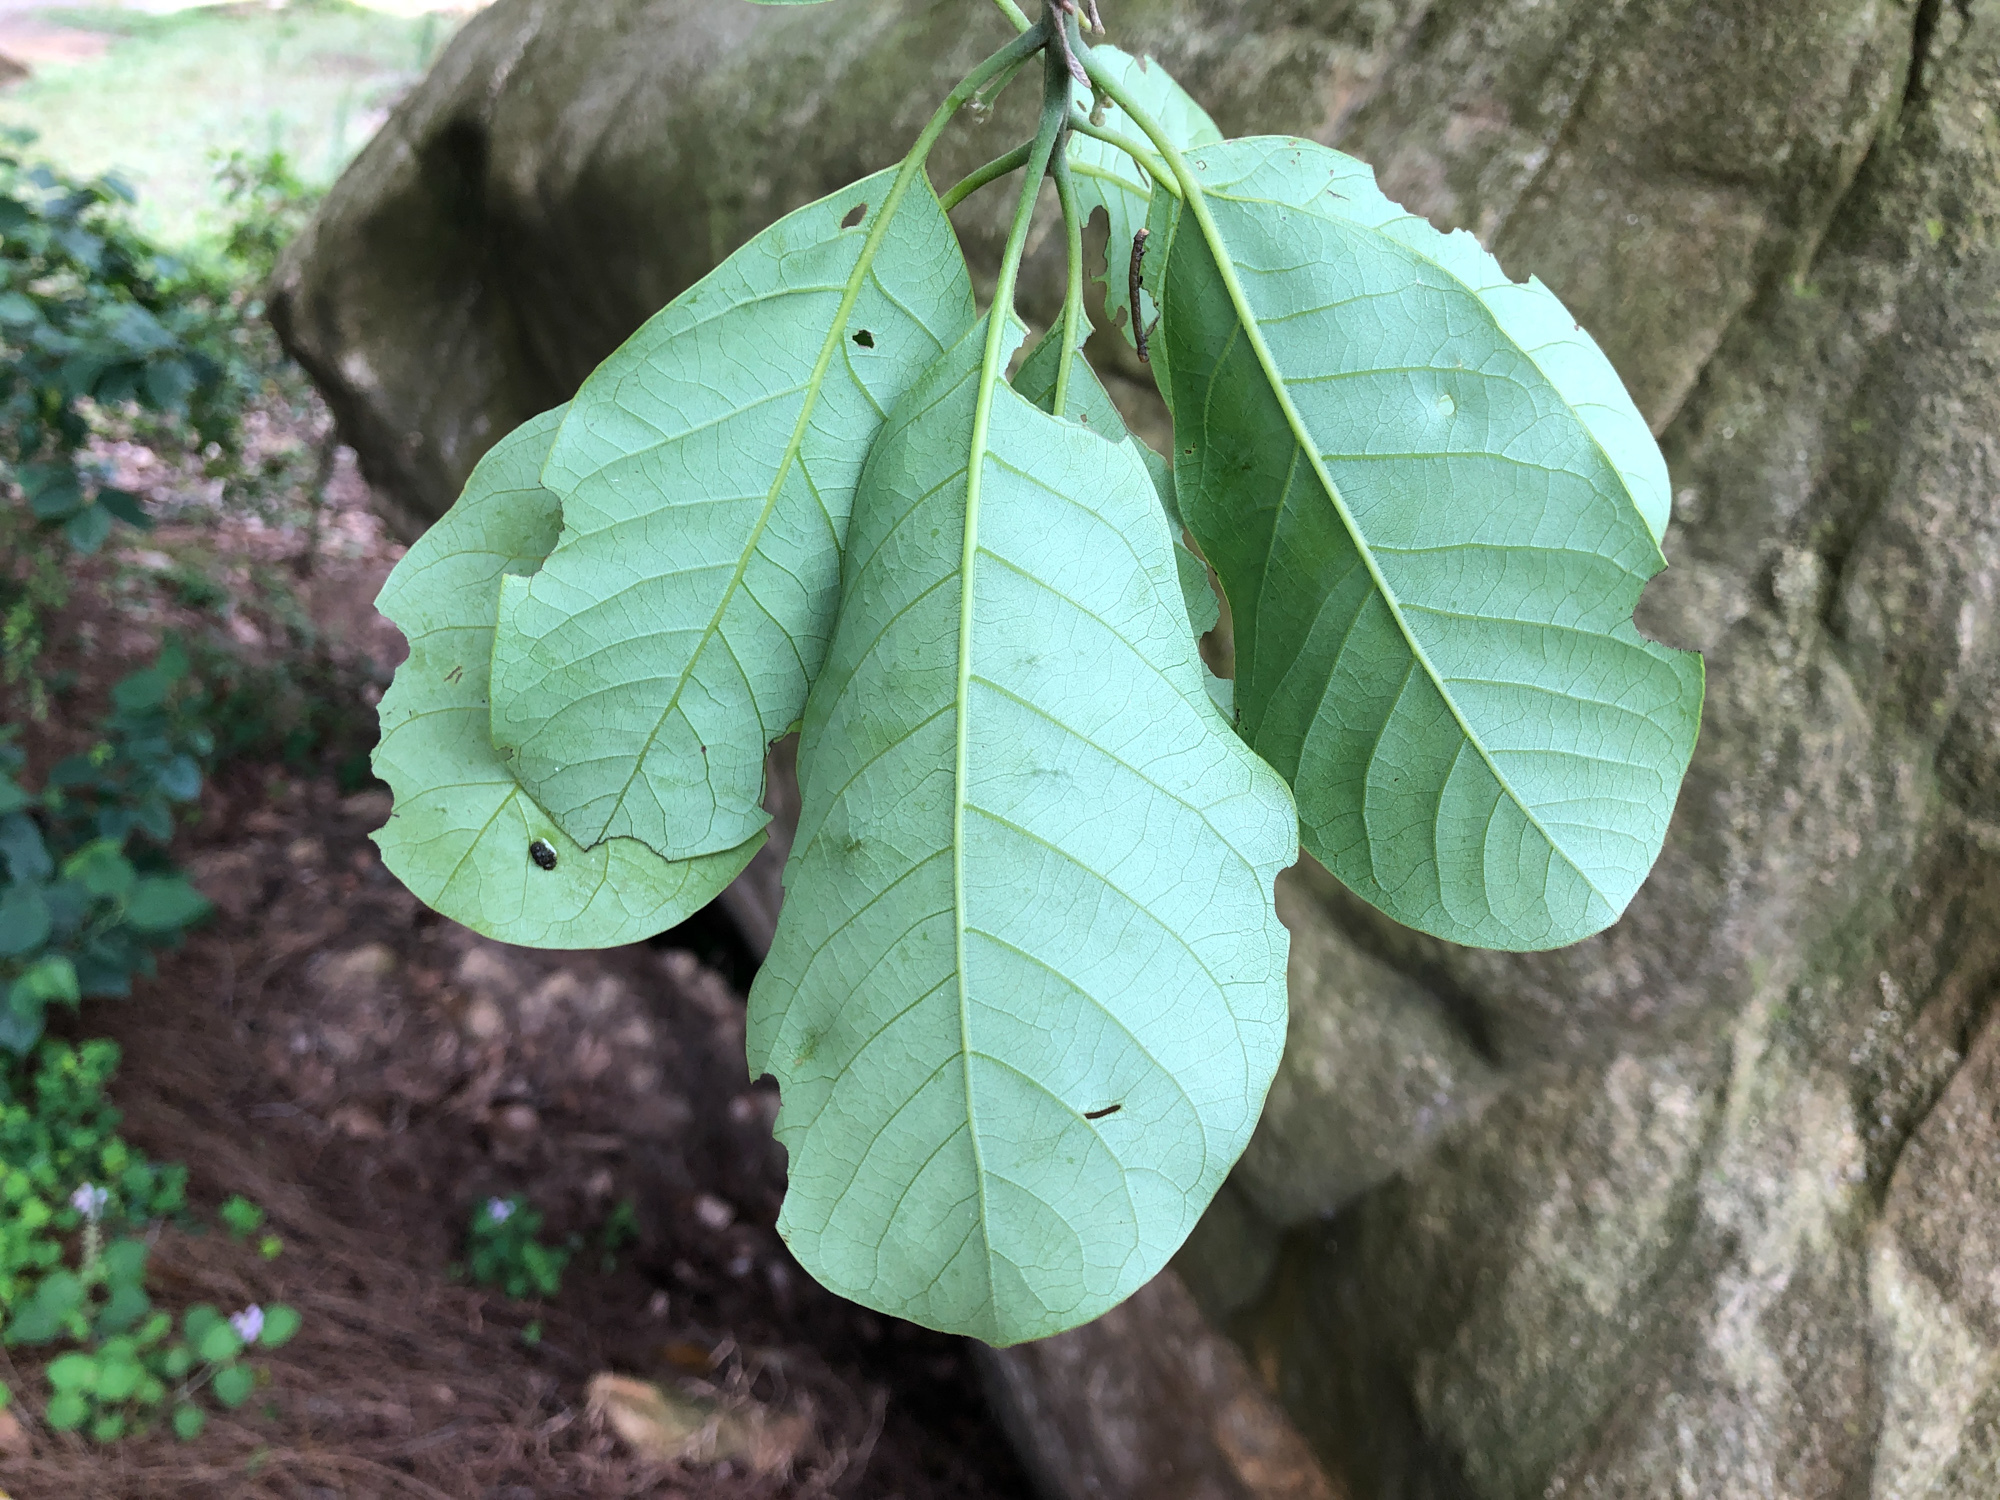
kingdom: Plantae
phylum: Tracheophyta
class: Magnoliopsida
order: Laurales
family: Lauraceae
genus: Litsea
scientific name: Litsea glutinosa
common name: Indian-laurel
